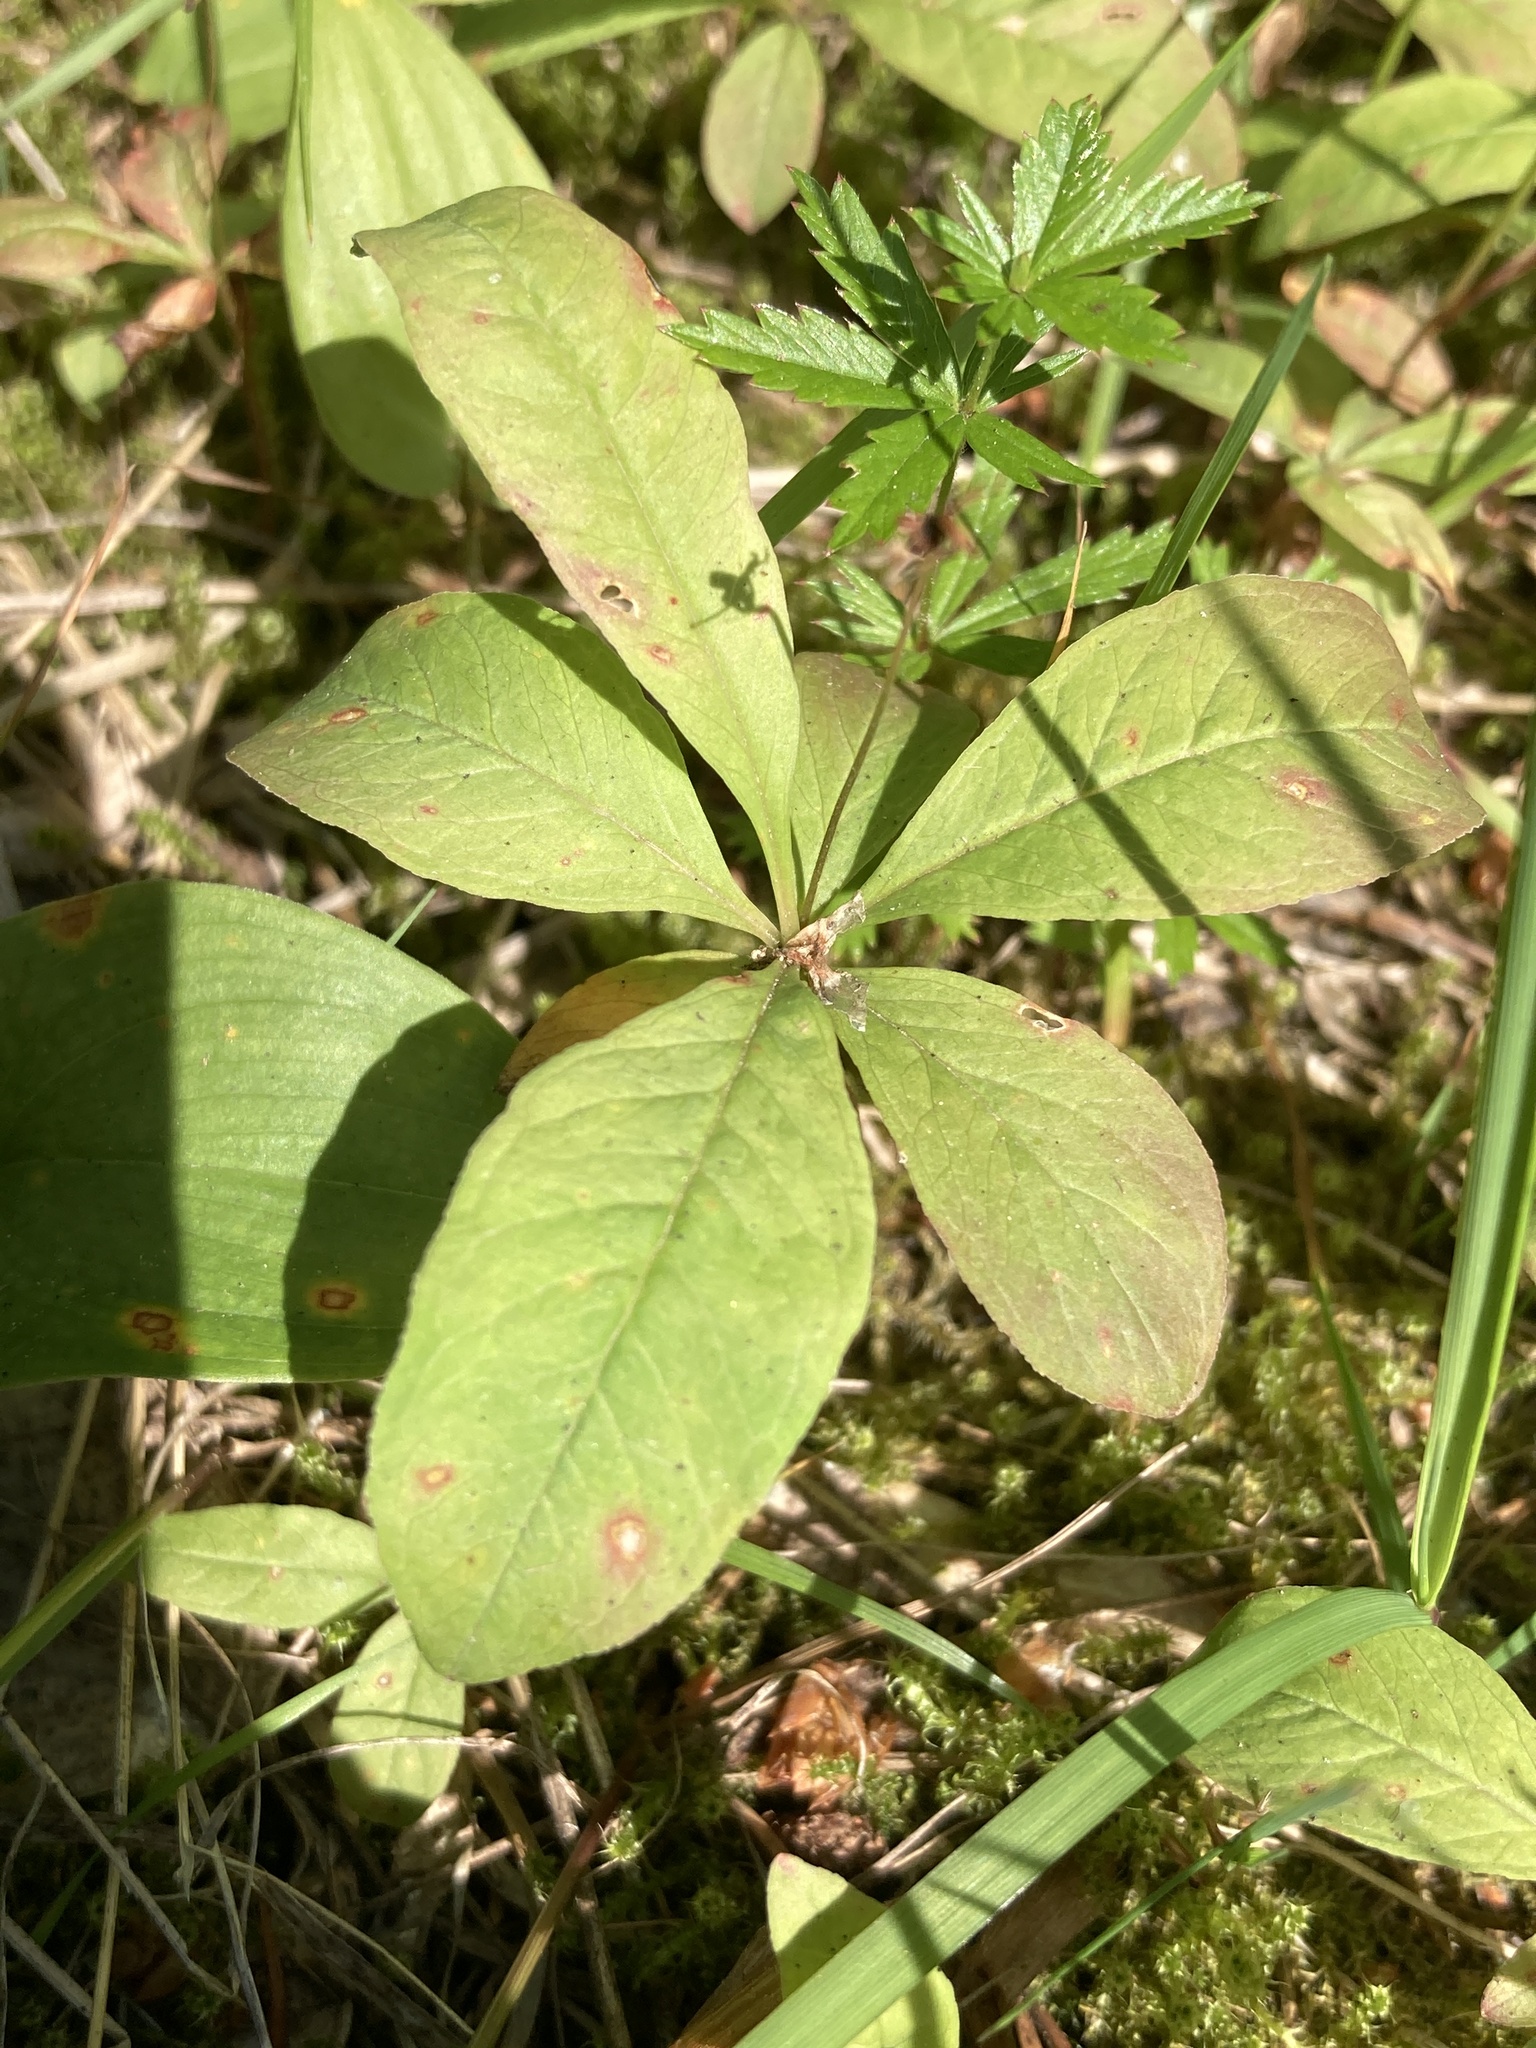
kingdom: Plantae
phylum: Tracheophyta
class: Magnoliopsida
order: Ericales
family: Primulaceae
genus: Lysimachia
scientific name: Lysimachia europaea
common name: Arctic starflower
